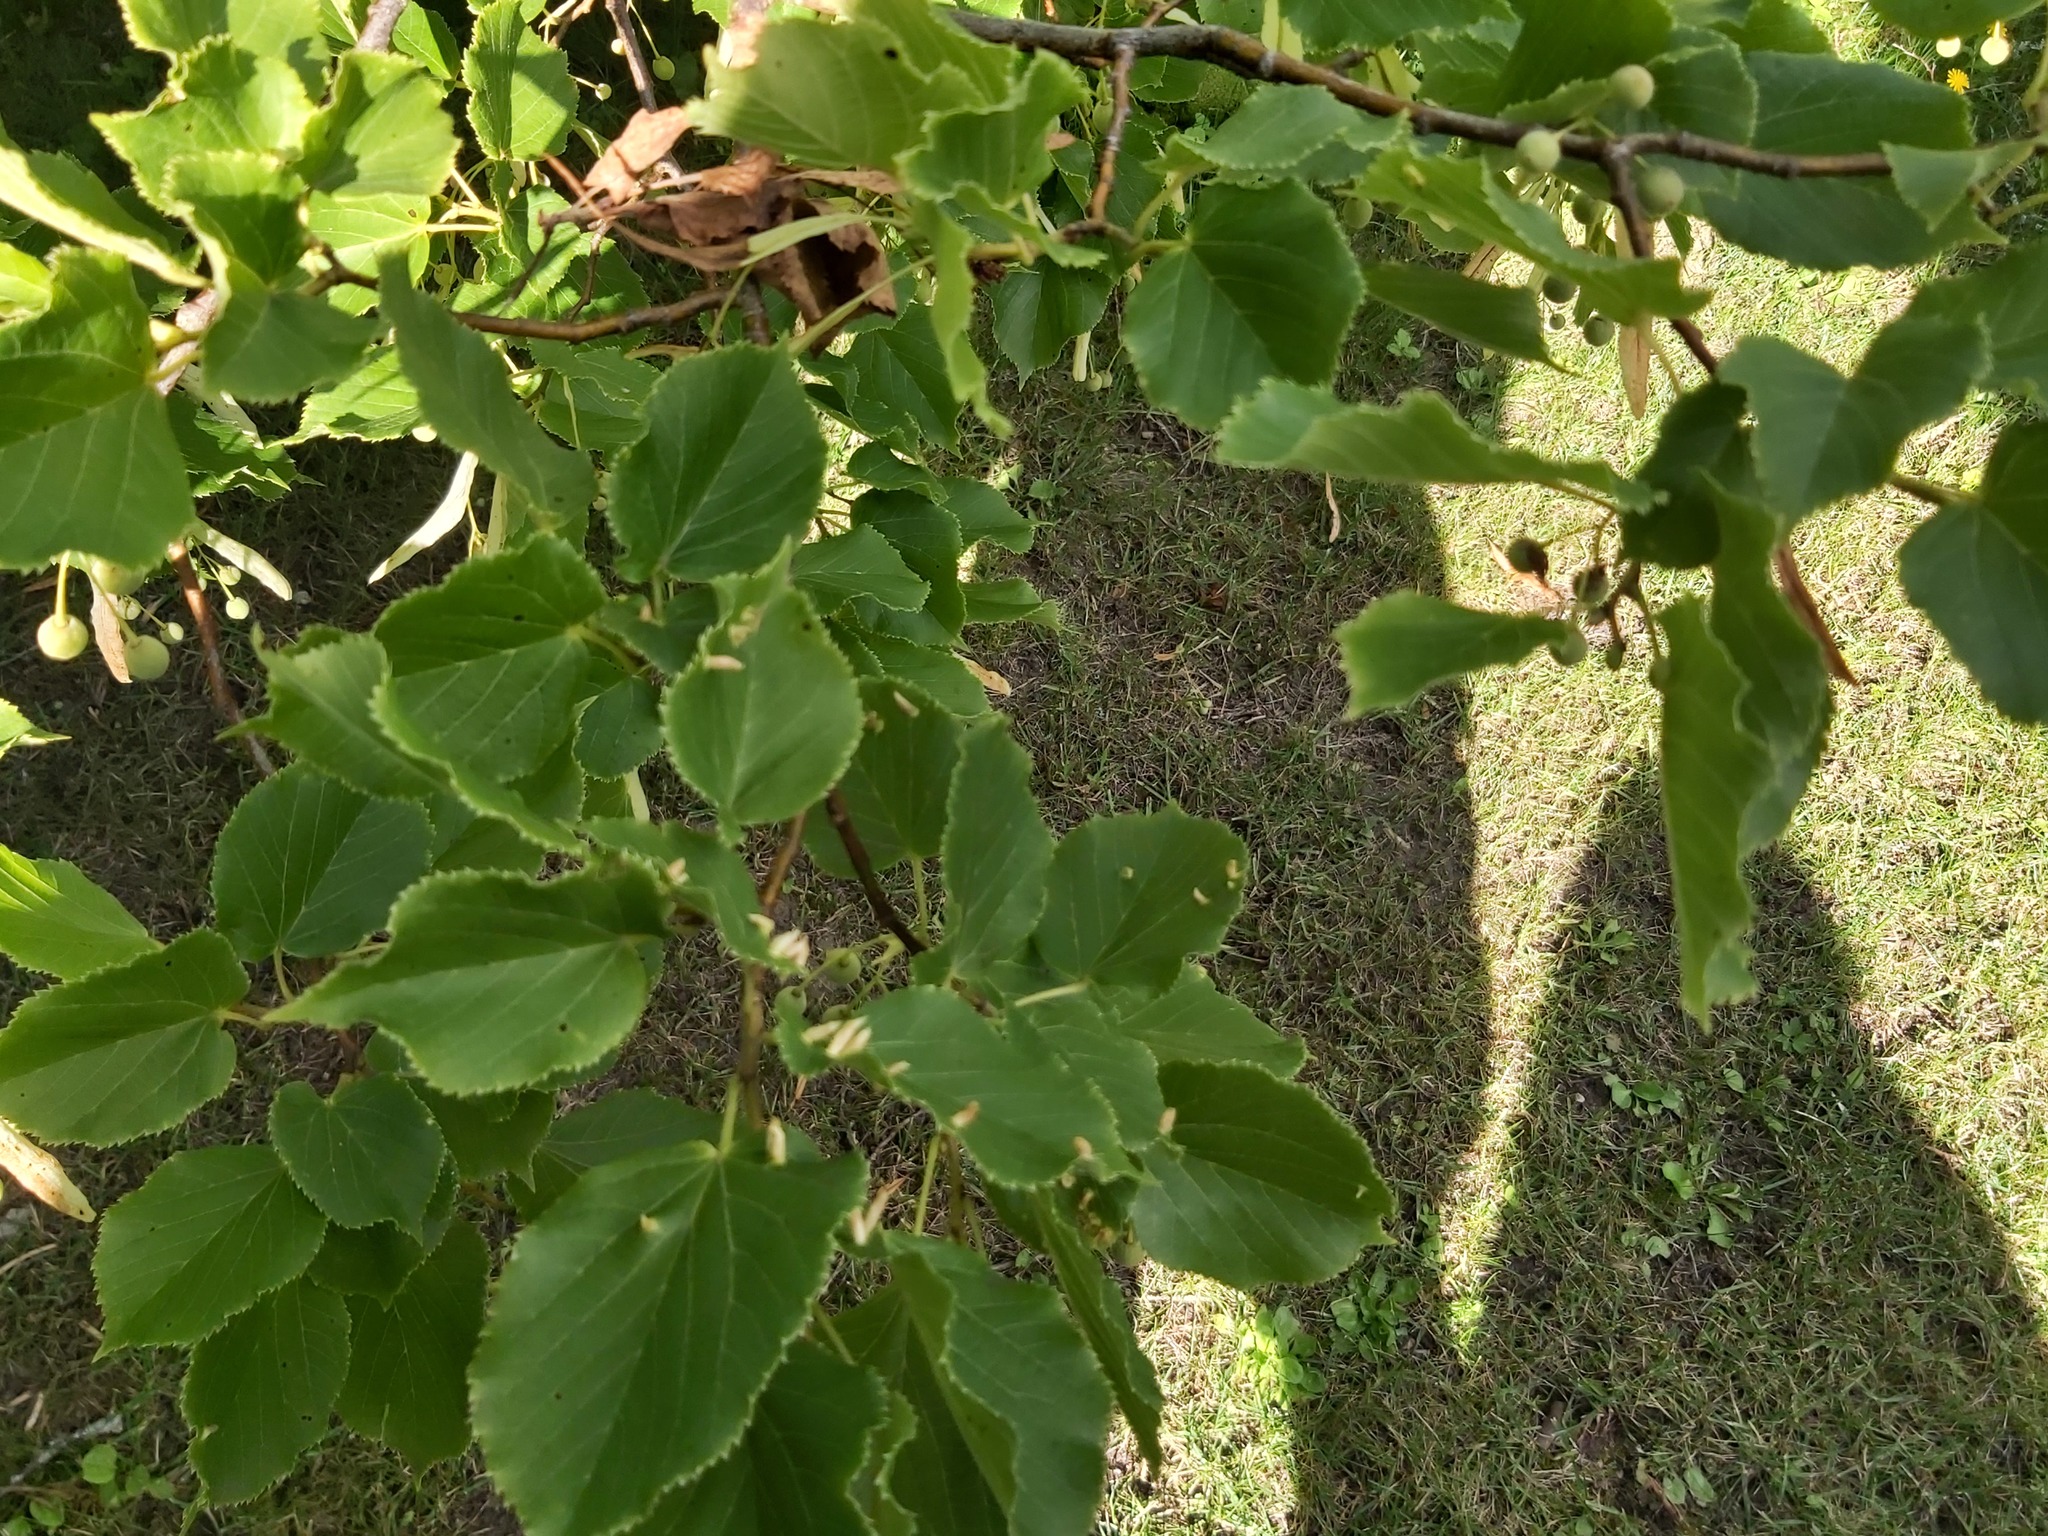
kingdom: Animalia
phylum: Arthropoda
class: Arachnida
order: Trombidiformes
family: Eriophyidae
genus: Eriophyes
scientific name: Eriophyes tiliae
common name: Red nail gall mite
